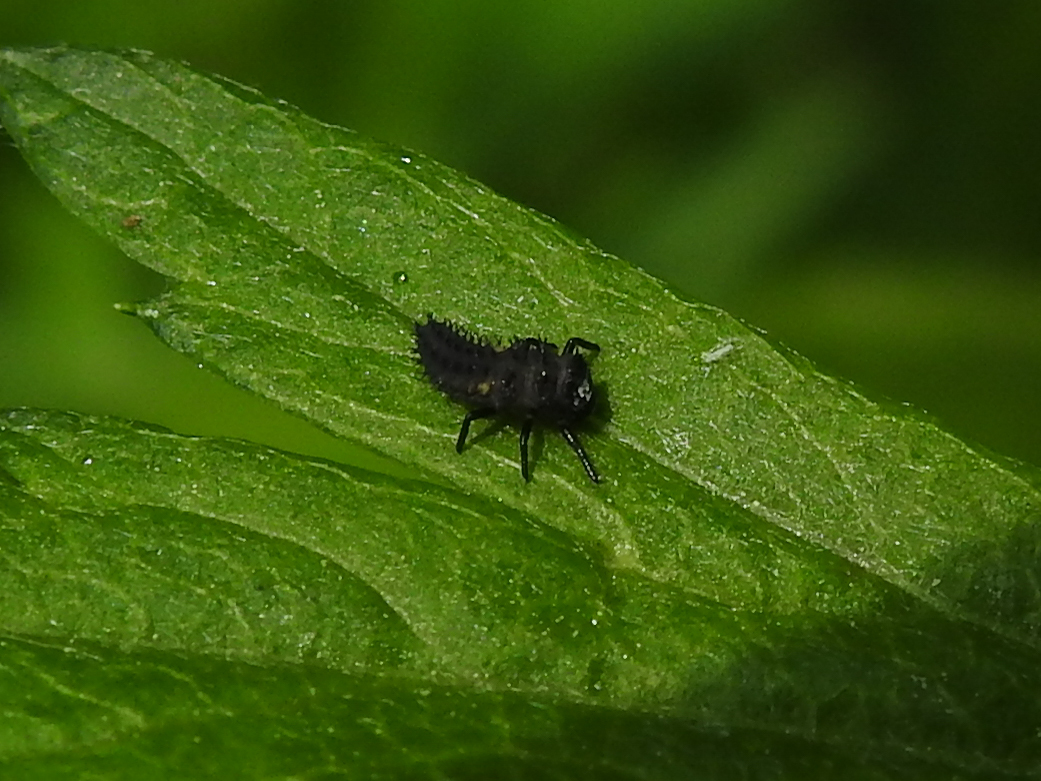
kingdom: Animalia
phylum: Arthropoda
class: Insecta
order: Coleoptera
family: Coccinellidae
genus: Harmonia
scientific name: Harmonia axyridis
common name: Harlequin ladybird
